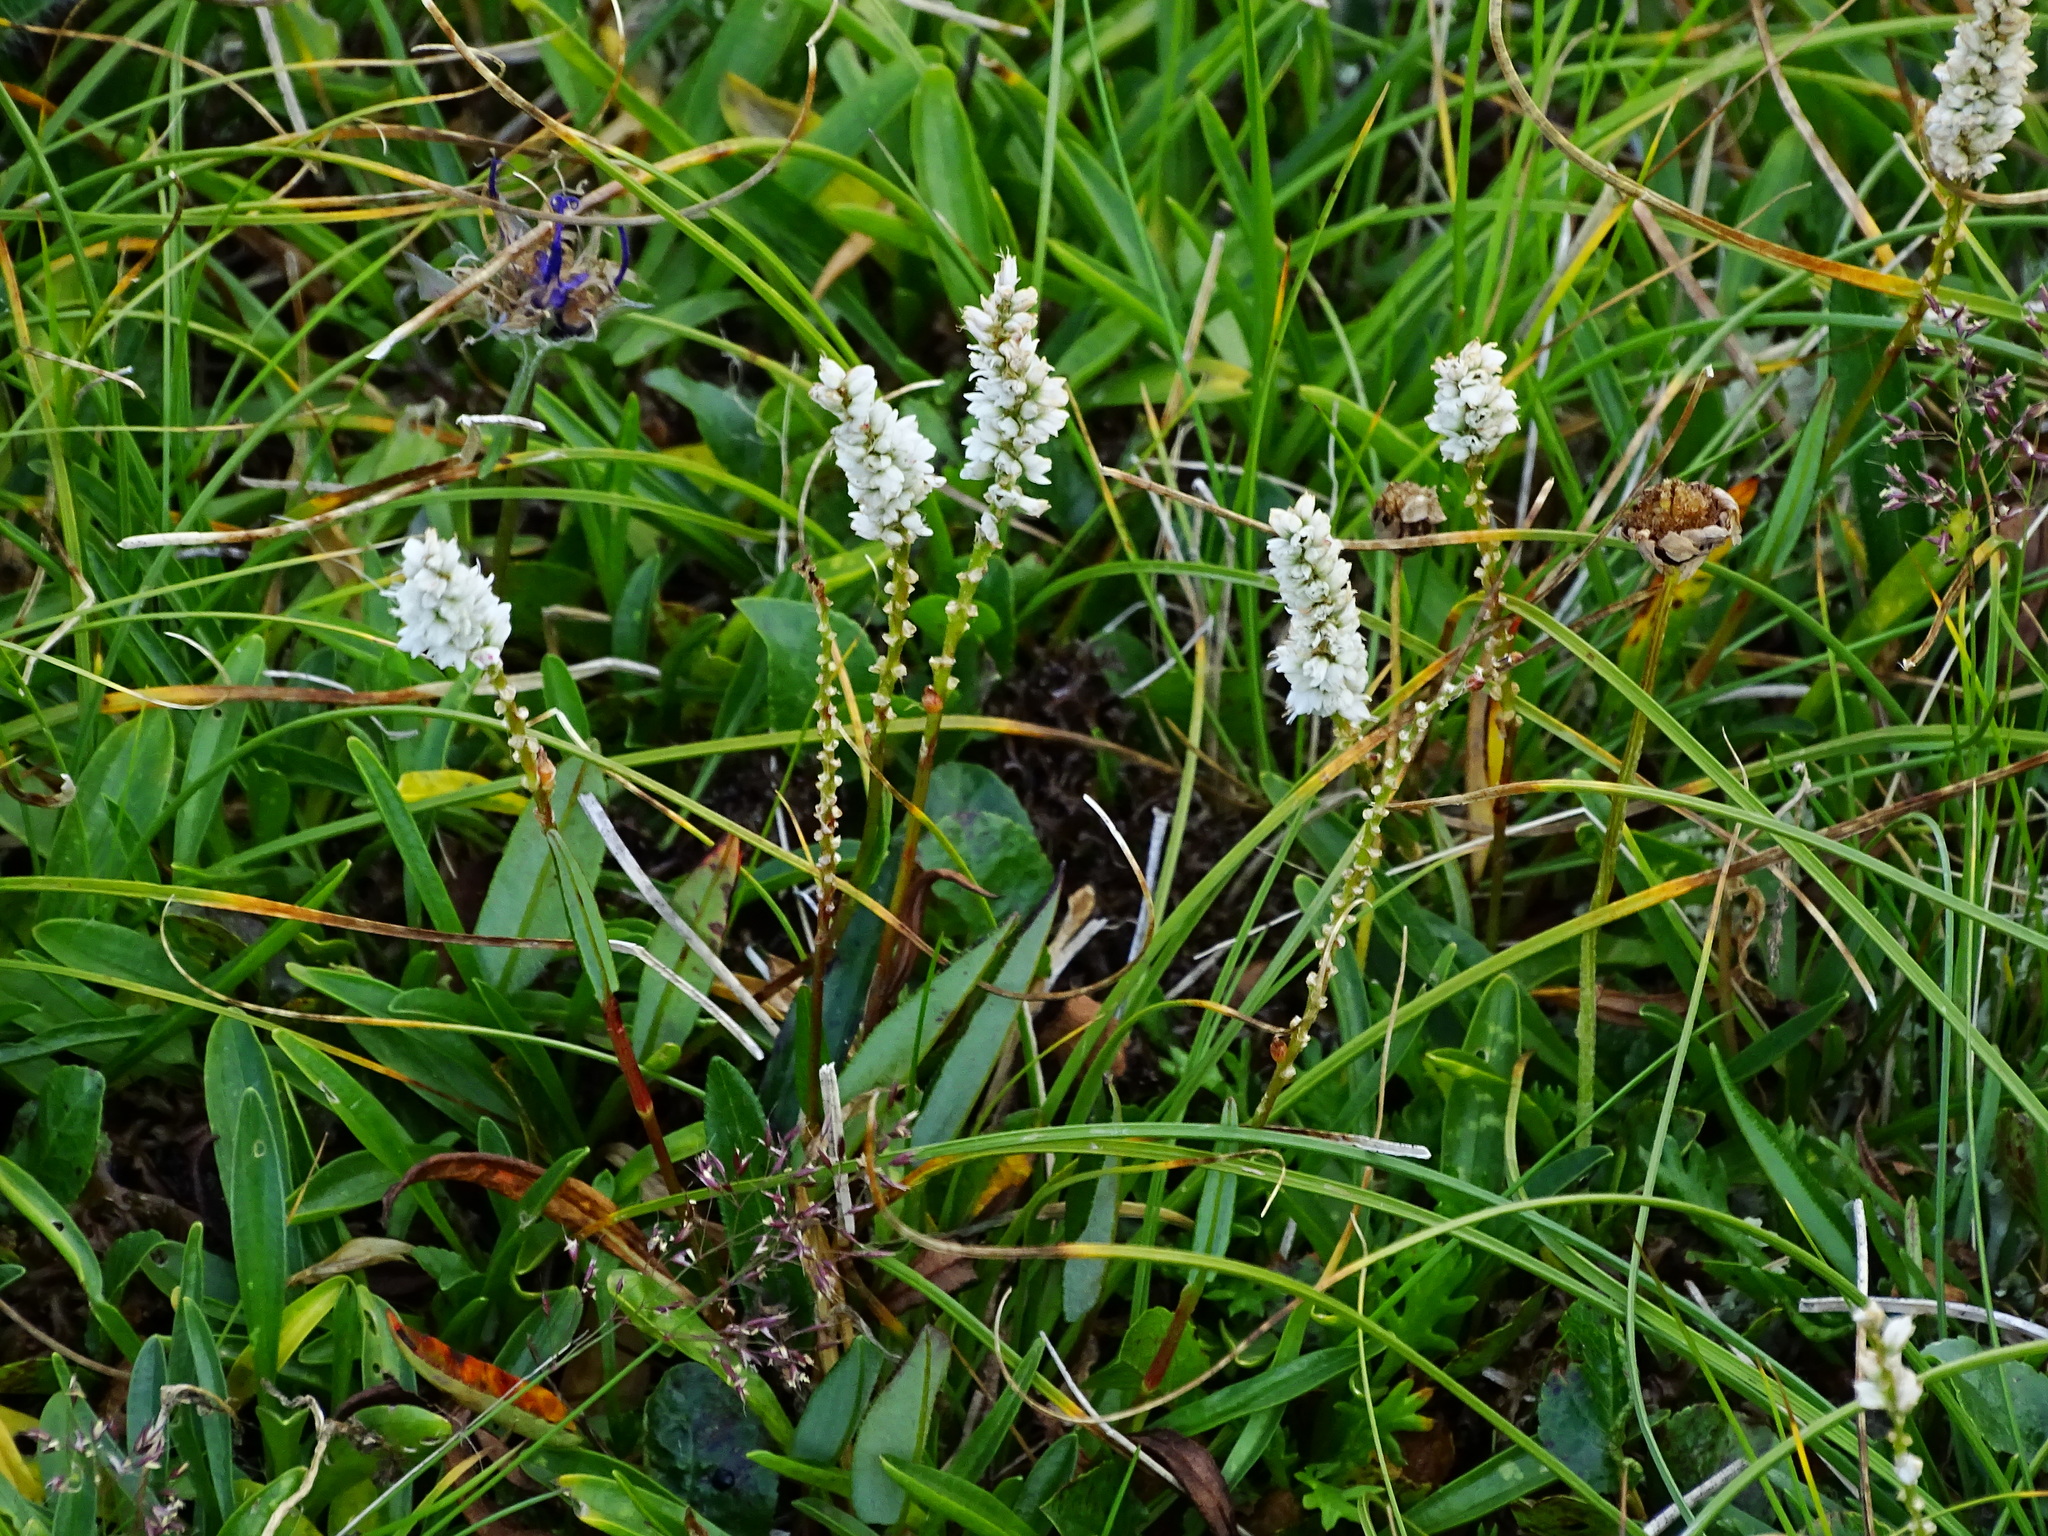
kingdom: Plantae
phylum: Tracheophyta
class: Magnoliopsida
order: Caryophyllales
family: Polygonaceae
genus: Bistorta
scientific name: Bistorta vivipara
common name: Alpine bistort
